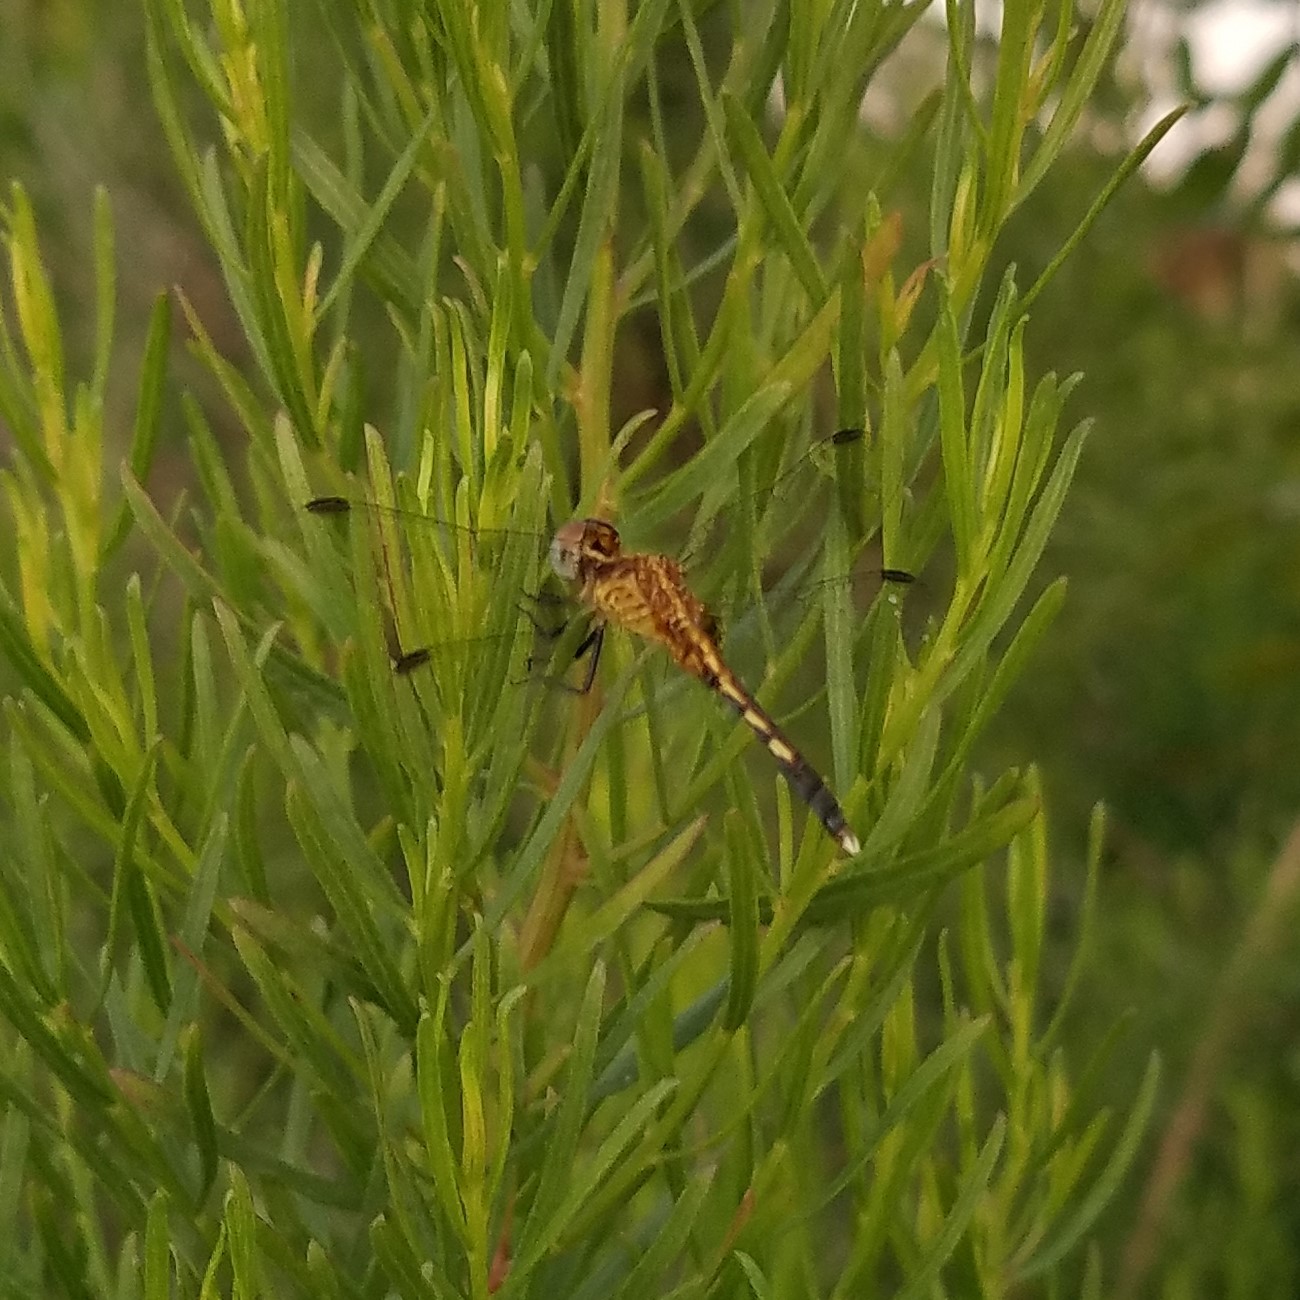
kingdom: Animalia
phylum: Arthropoda
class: Insecta
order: Odonata
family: Libellulidae
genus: Erythrodiplax
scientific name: Erythrodiplax minuscula
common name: Little blue dragonlet
